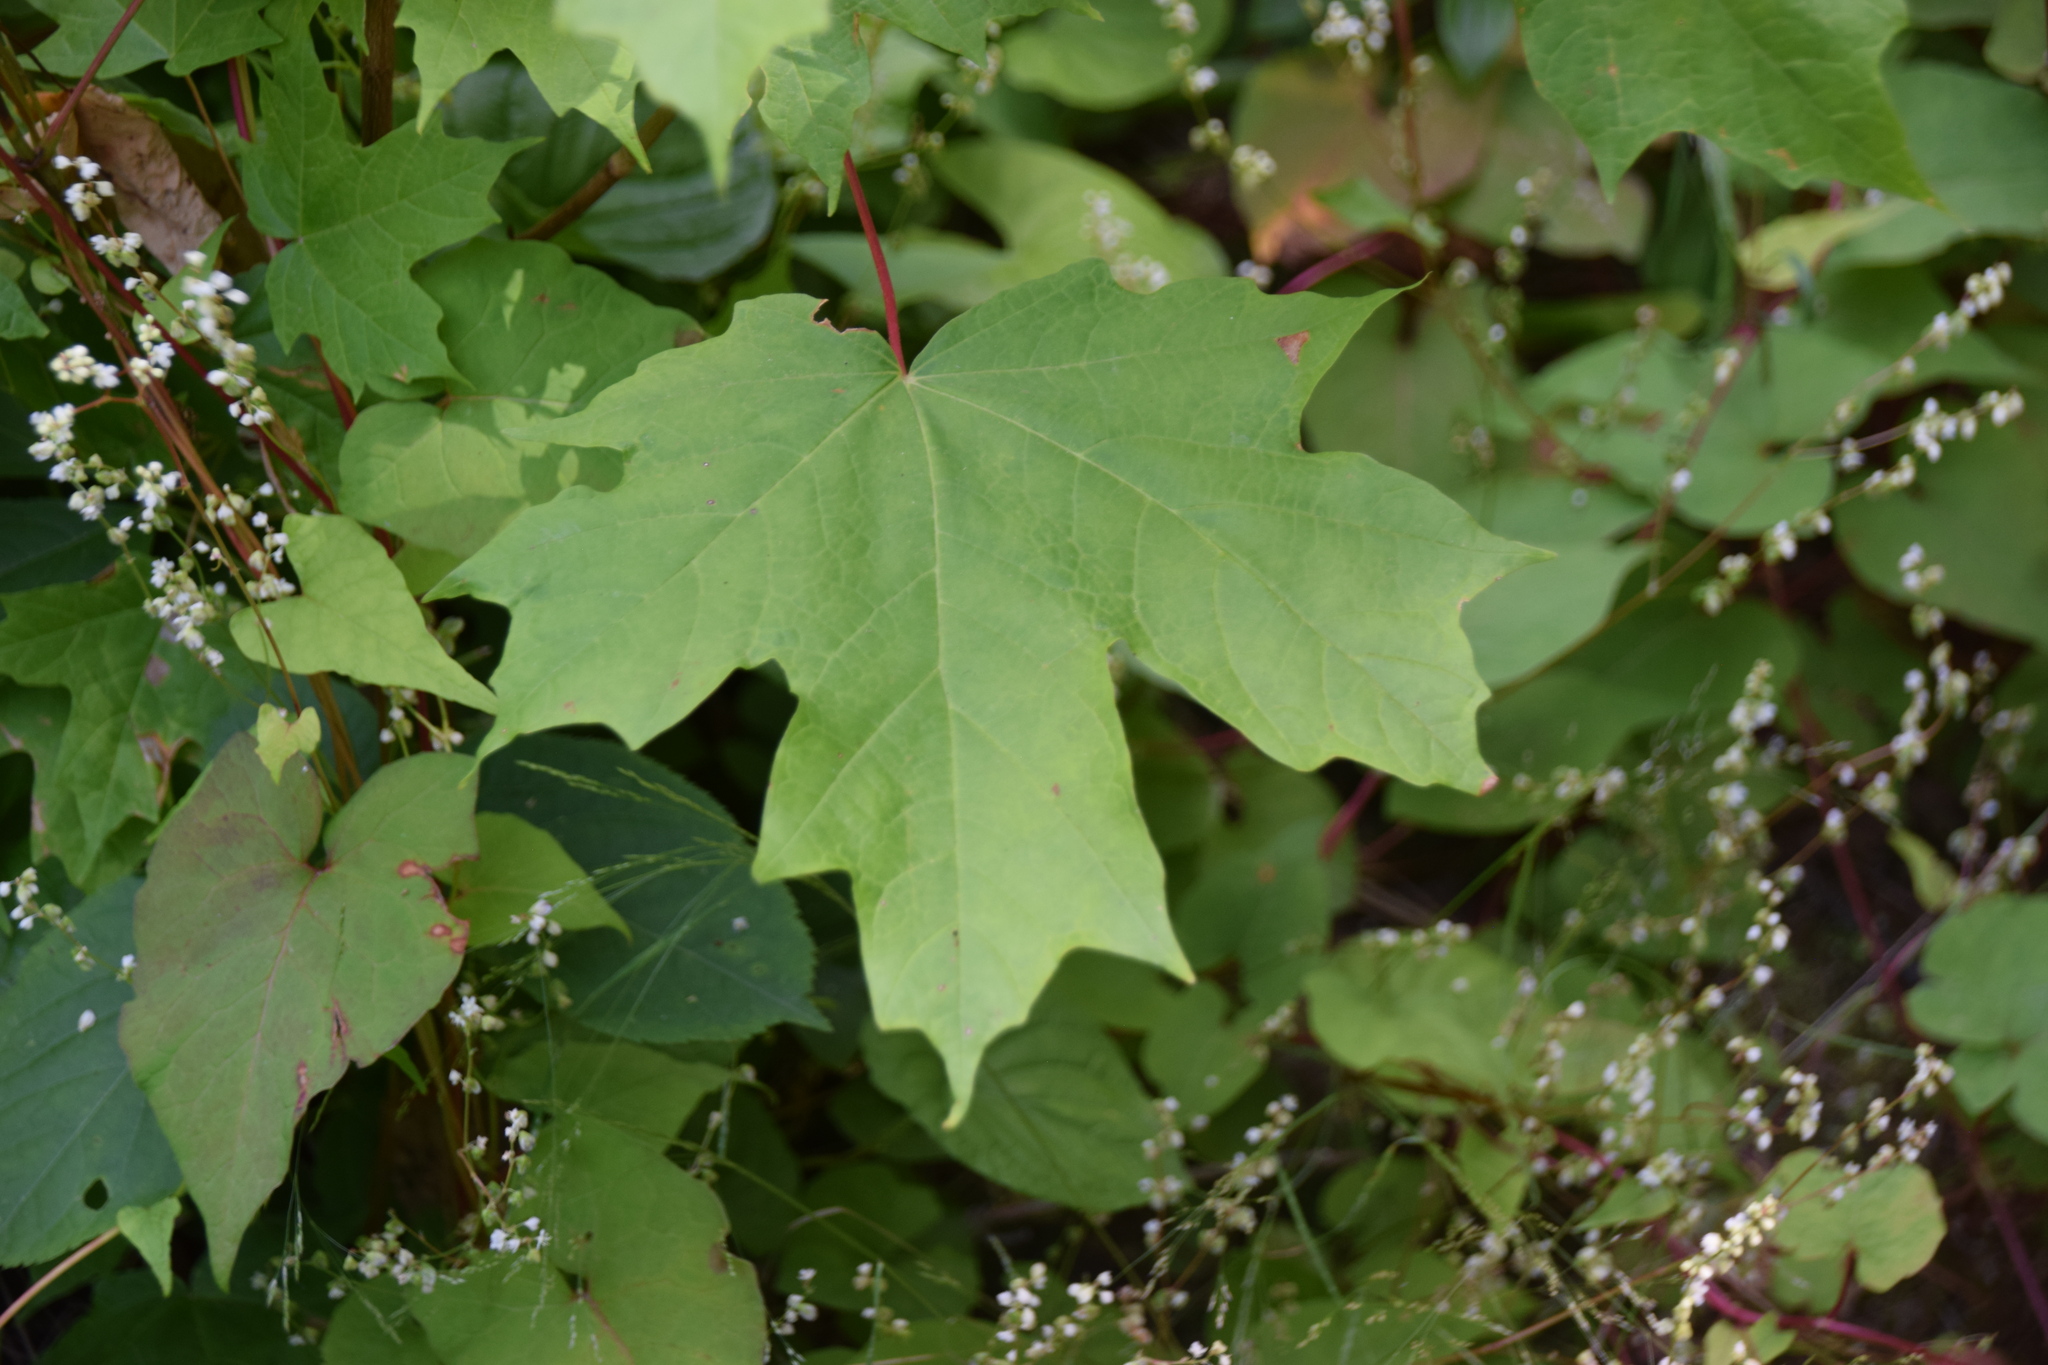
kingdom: Plantae
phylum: Tracheophyta
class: Magnoliopsida
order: Sapindales
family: Sapindaceae
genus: Acer
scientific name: Acer saccharum
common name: Sugar maple
